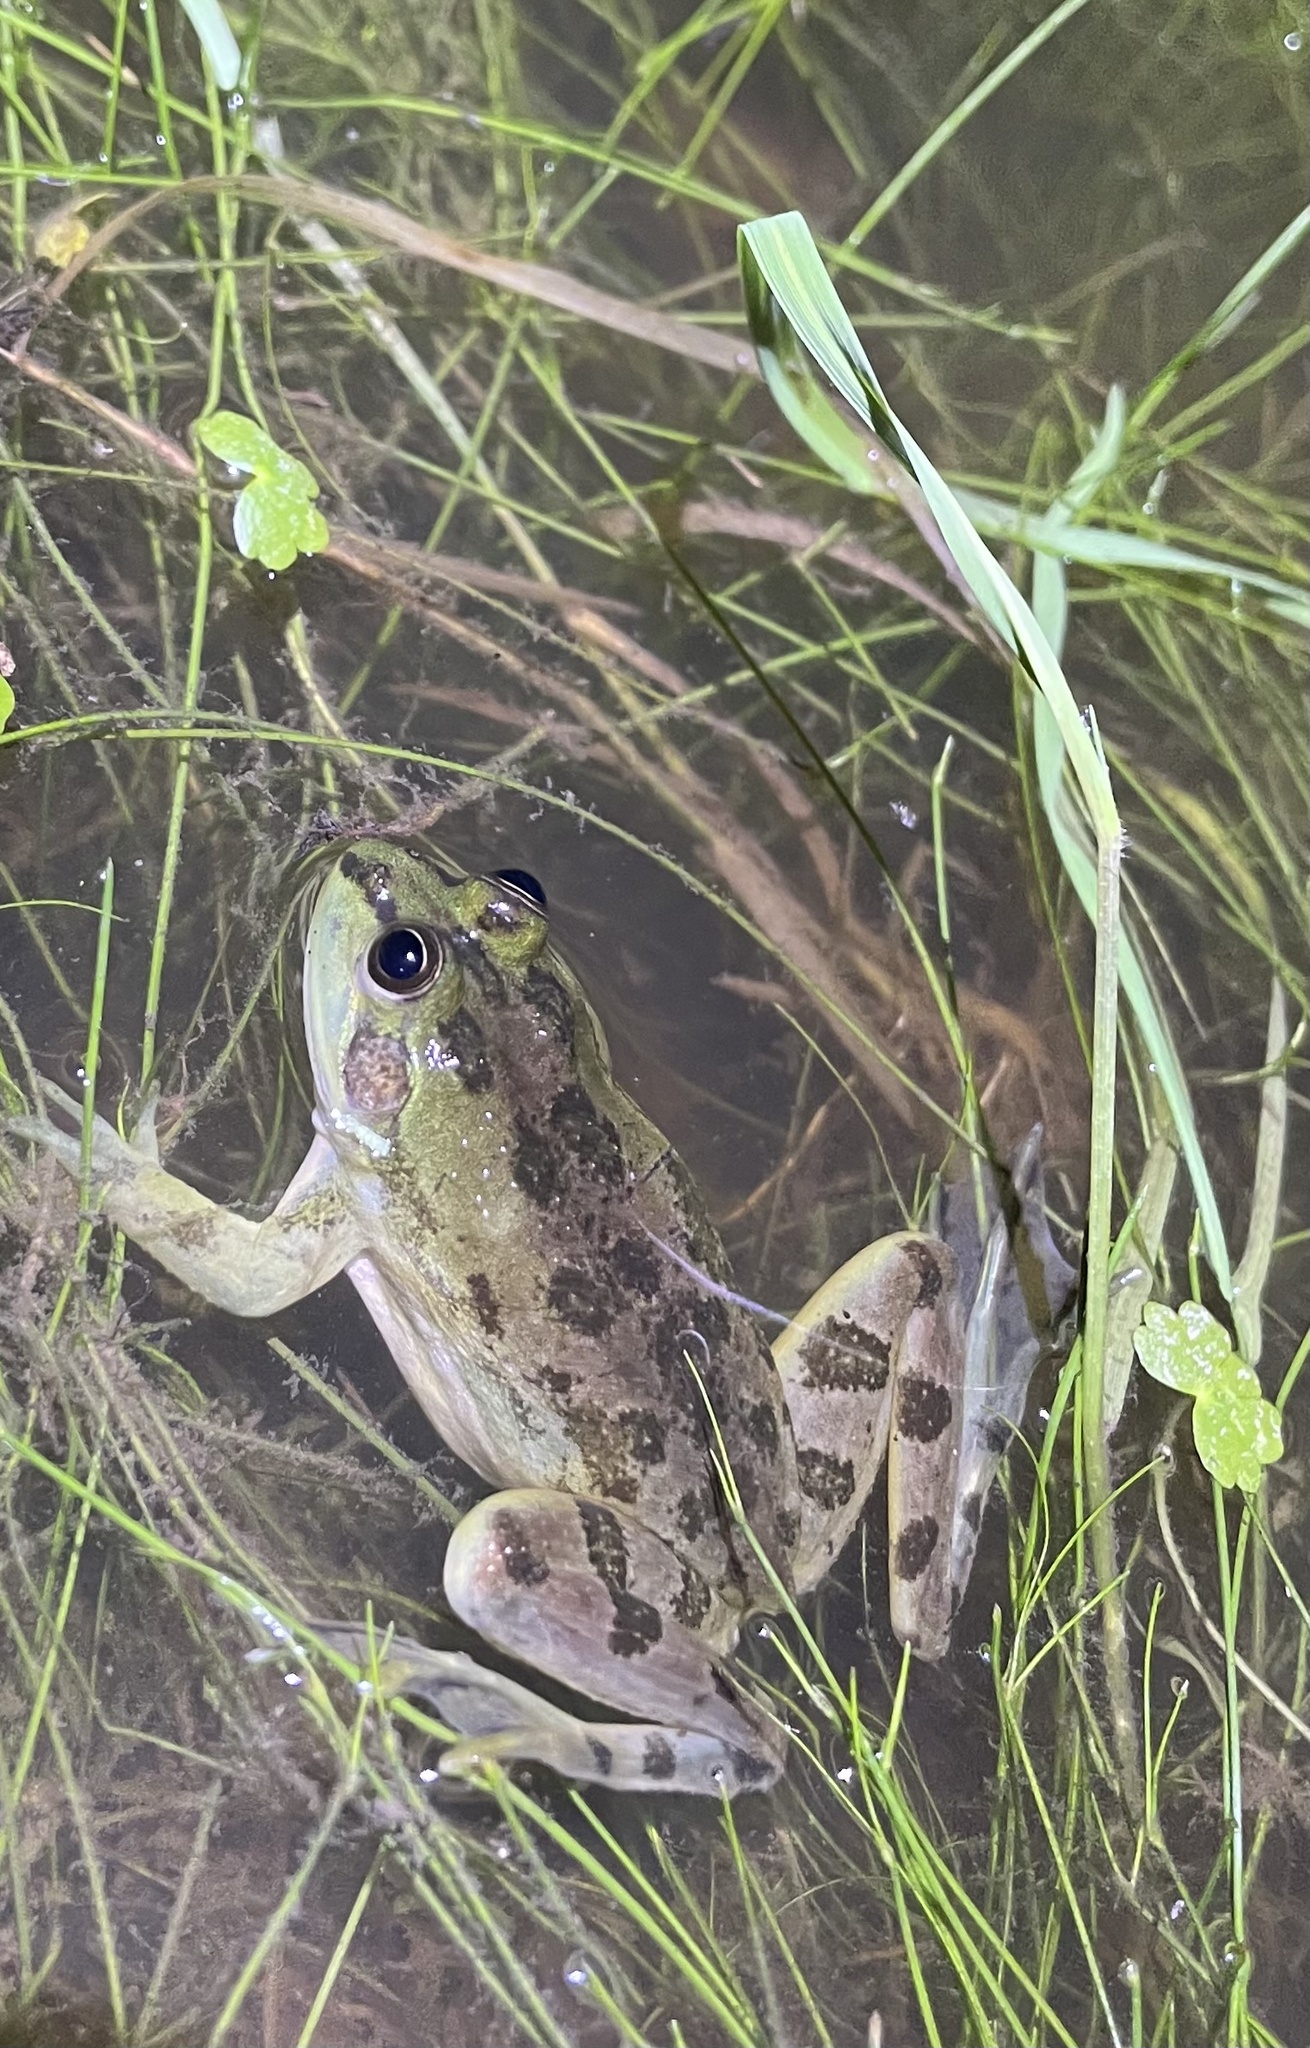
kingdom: Animalia
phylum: Chordata
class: Amphibia
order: Anura
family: Hylidae
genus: Pseudis
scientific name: Pseudis minuta
